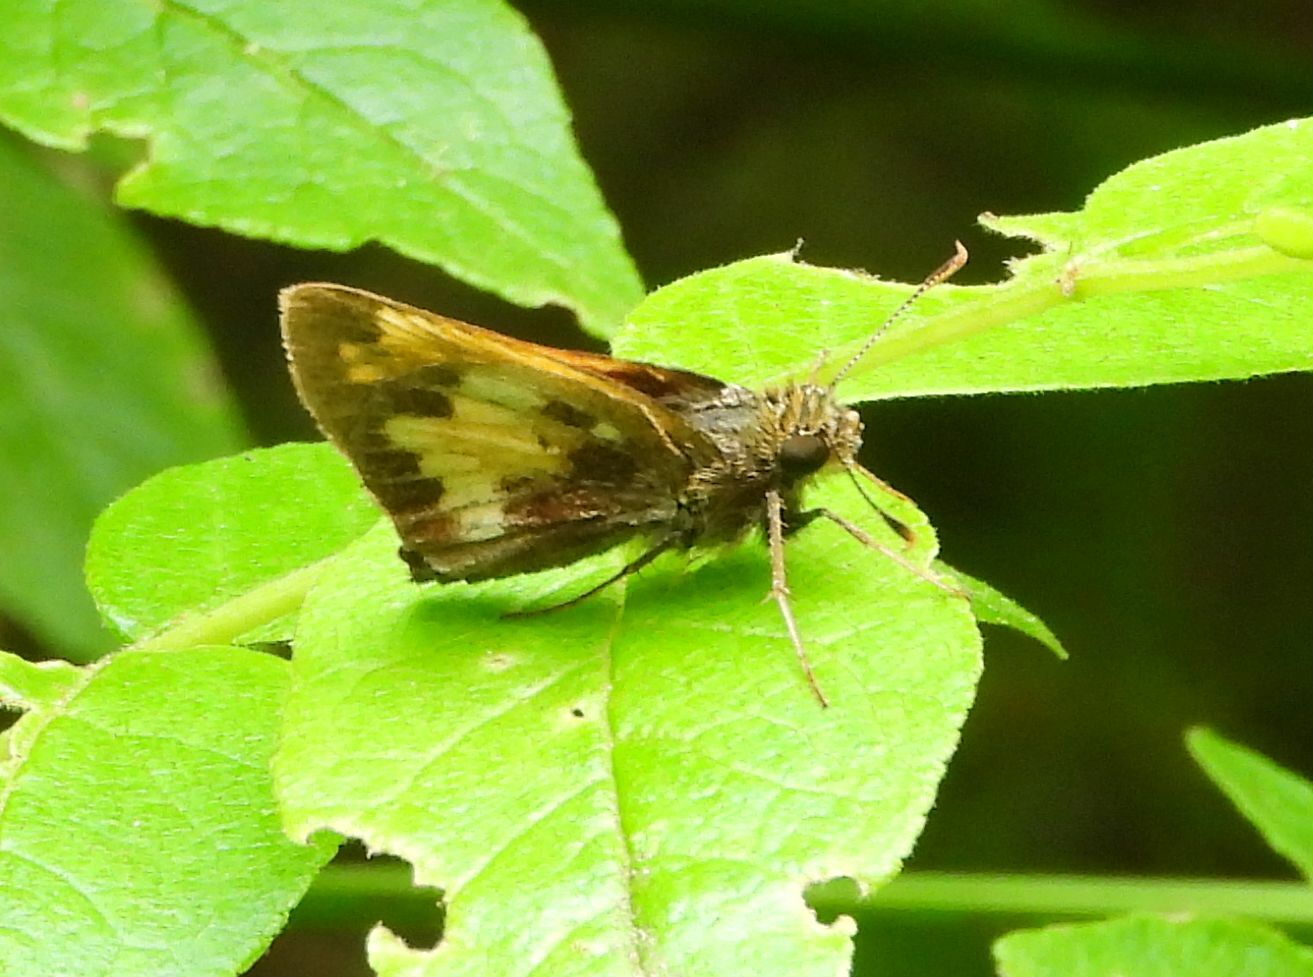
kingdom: Animalia
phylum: Arthropoda
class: Insecta
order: Lepidoptera
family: Hesperiidae
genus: Lon
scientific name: Lon hobomok
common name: Hobomok skipper
